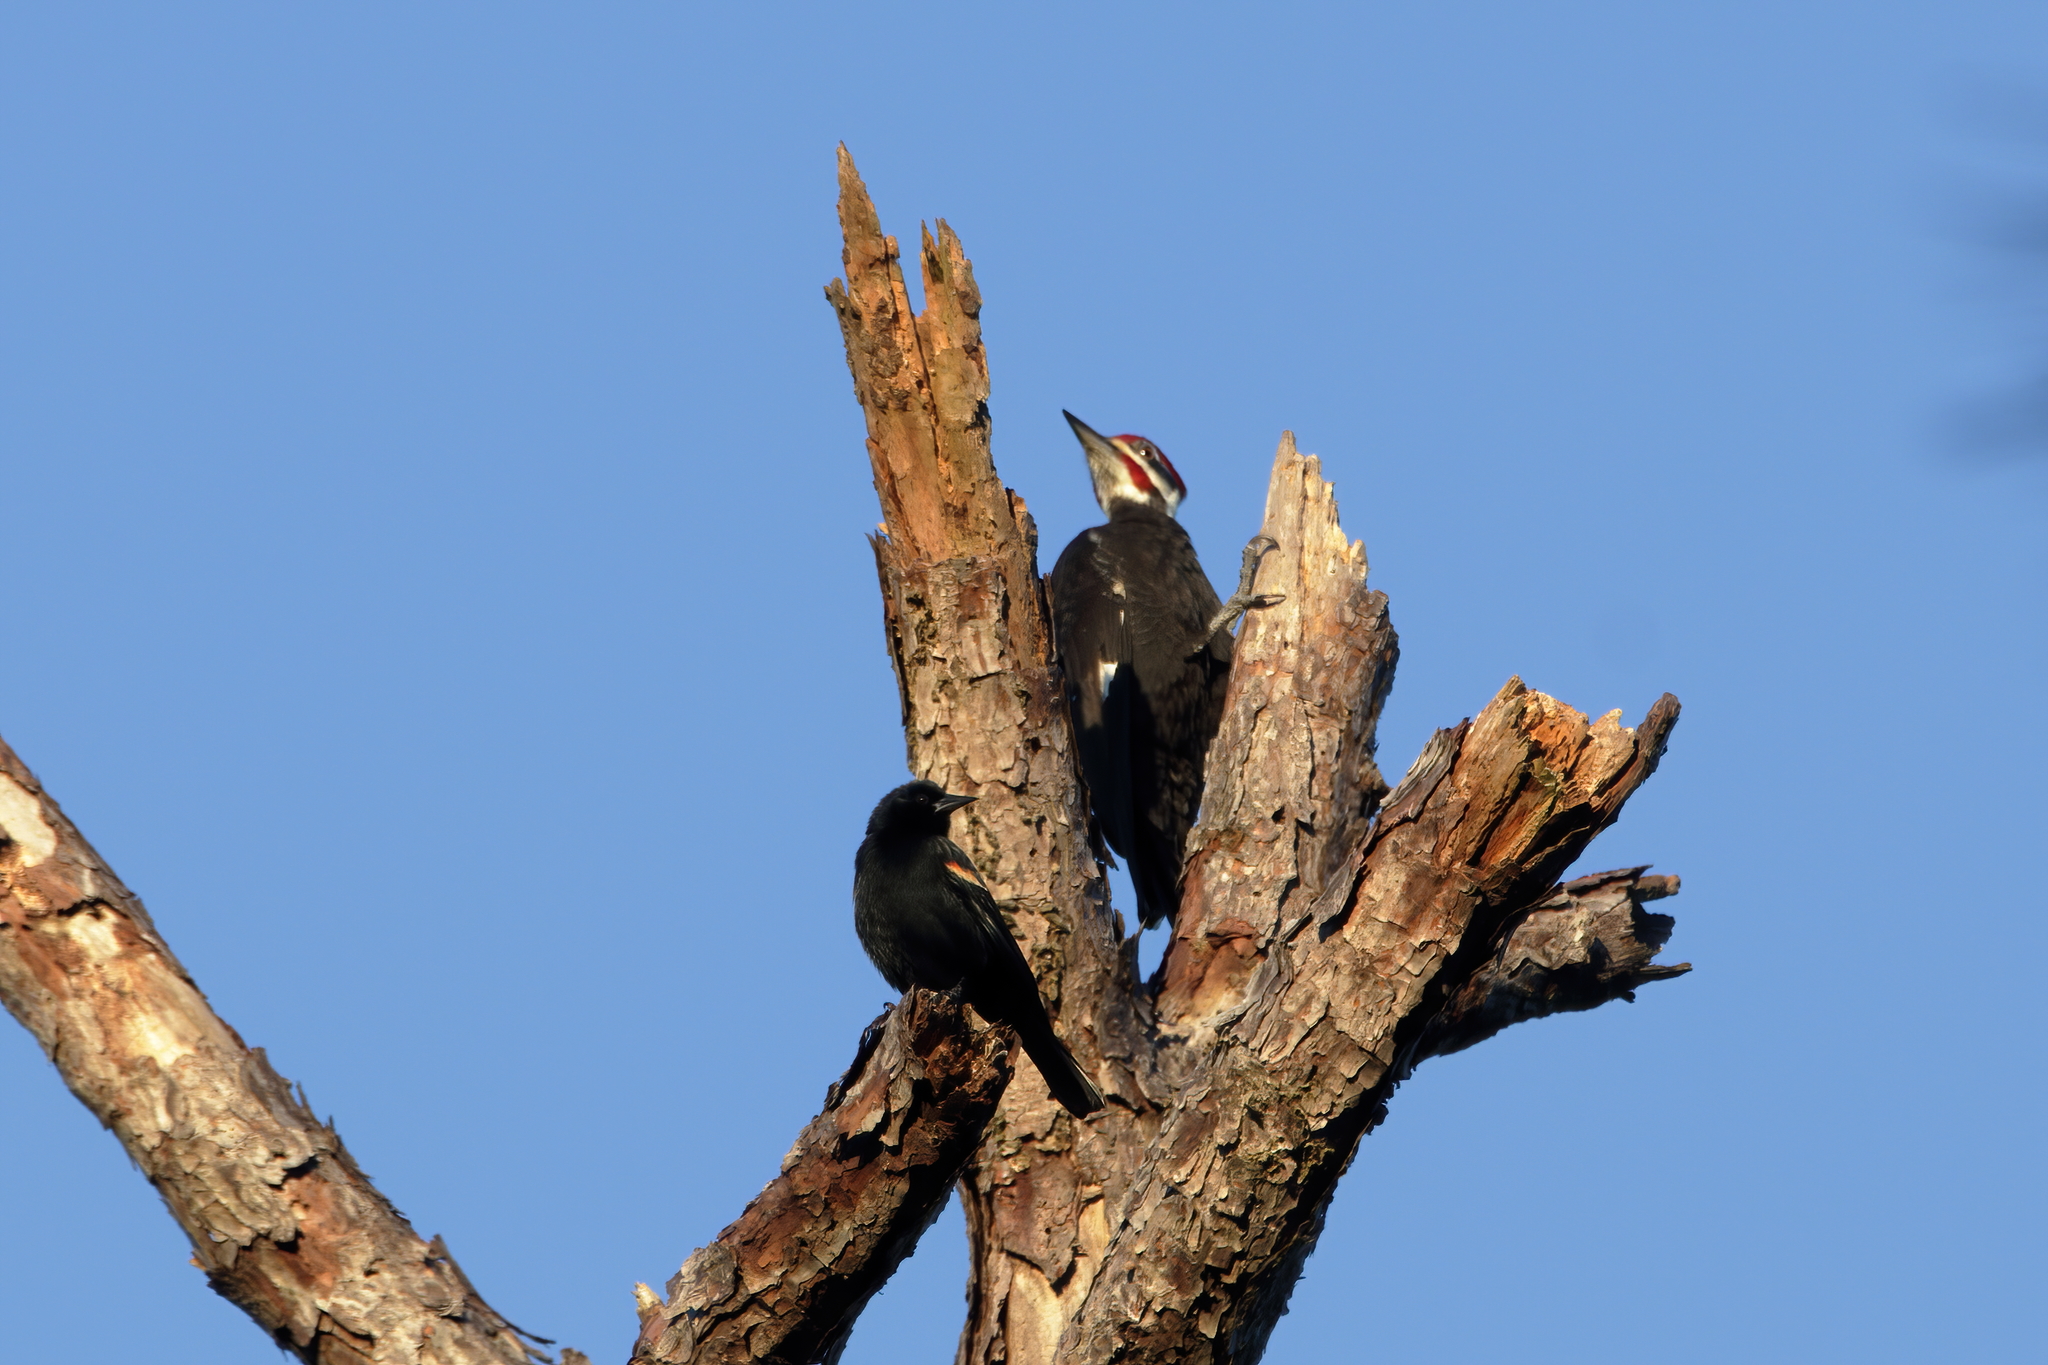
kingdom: Animalia
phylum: Chordata
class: Aves
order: Piciformes
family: Picidae
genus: Dryocopus
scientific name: Dryocopus pileatus
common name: Pileated woodpecker
